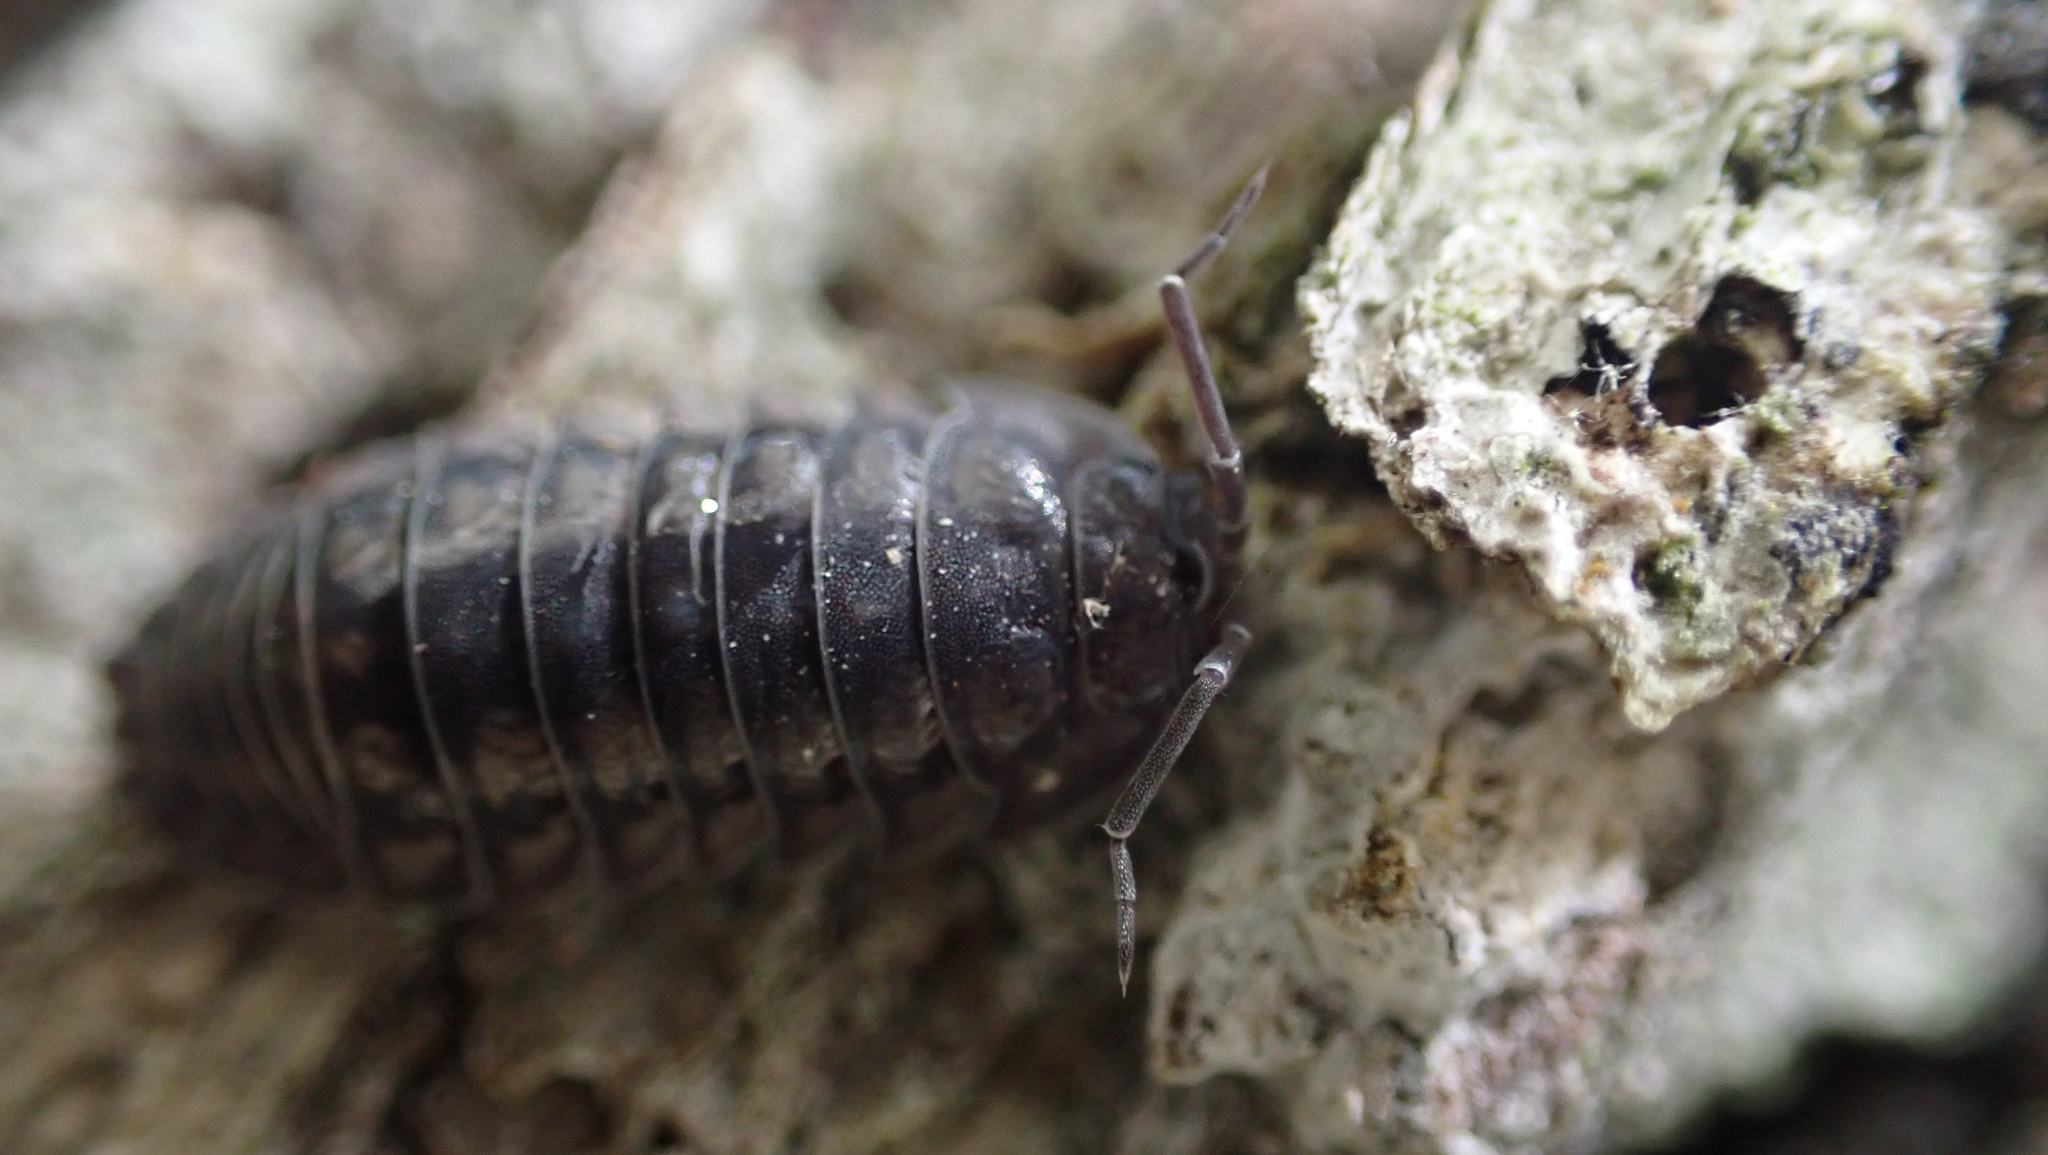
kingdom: Animalia
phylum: Arthropoda
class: Malacostraca
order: Isopoda
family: Armadillidiidae
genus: Armadillidium
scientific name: Armadillidium nasatum
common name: Isopod
